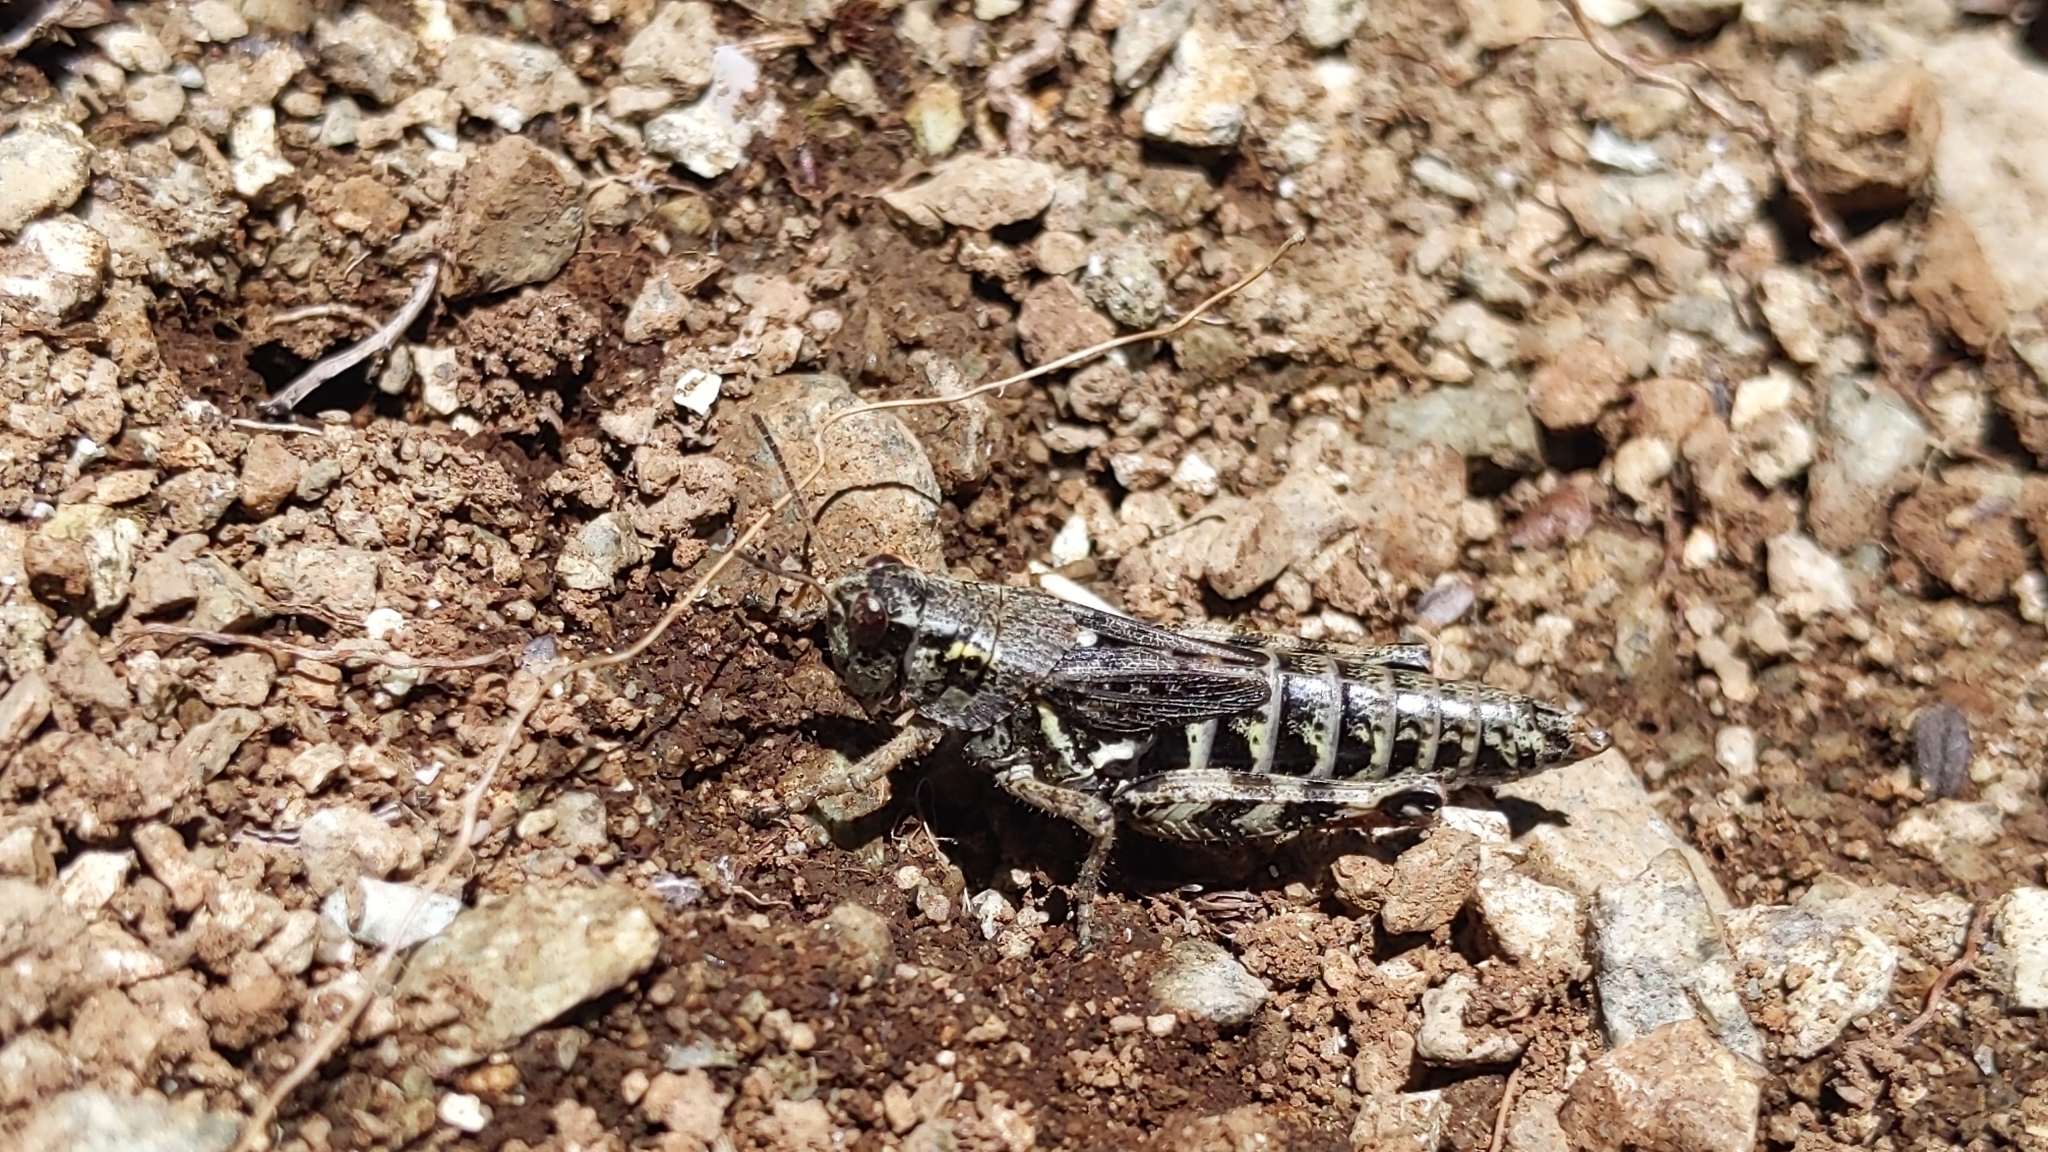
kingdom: Animalia
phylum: Arthropoda
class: Insecta
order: Orthoptera
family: Acrididae
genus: Bohemanella
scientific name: Bohemanella frigida
